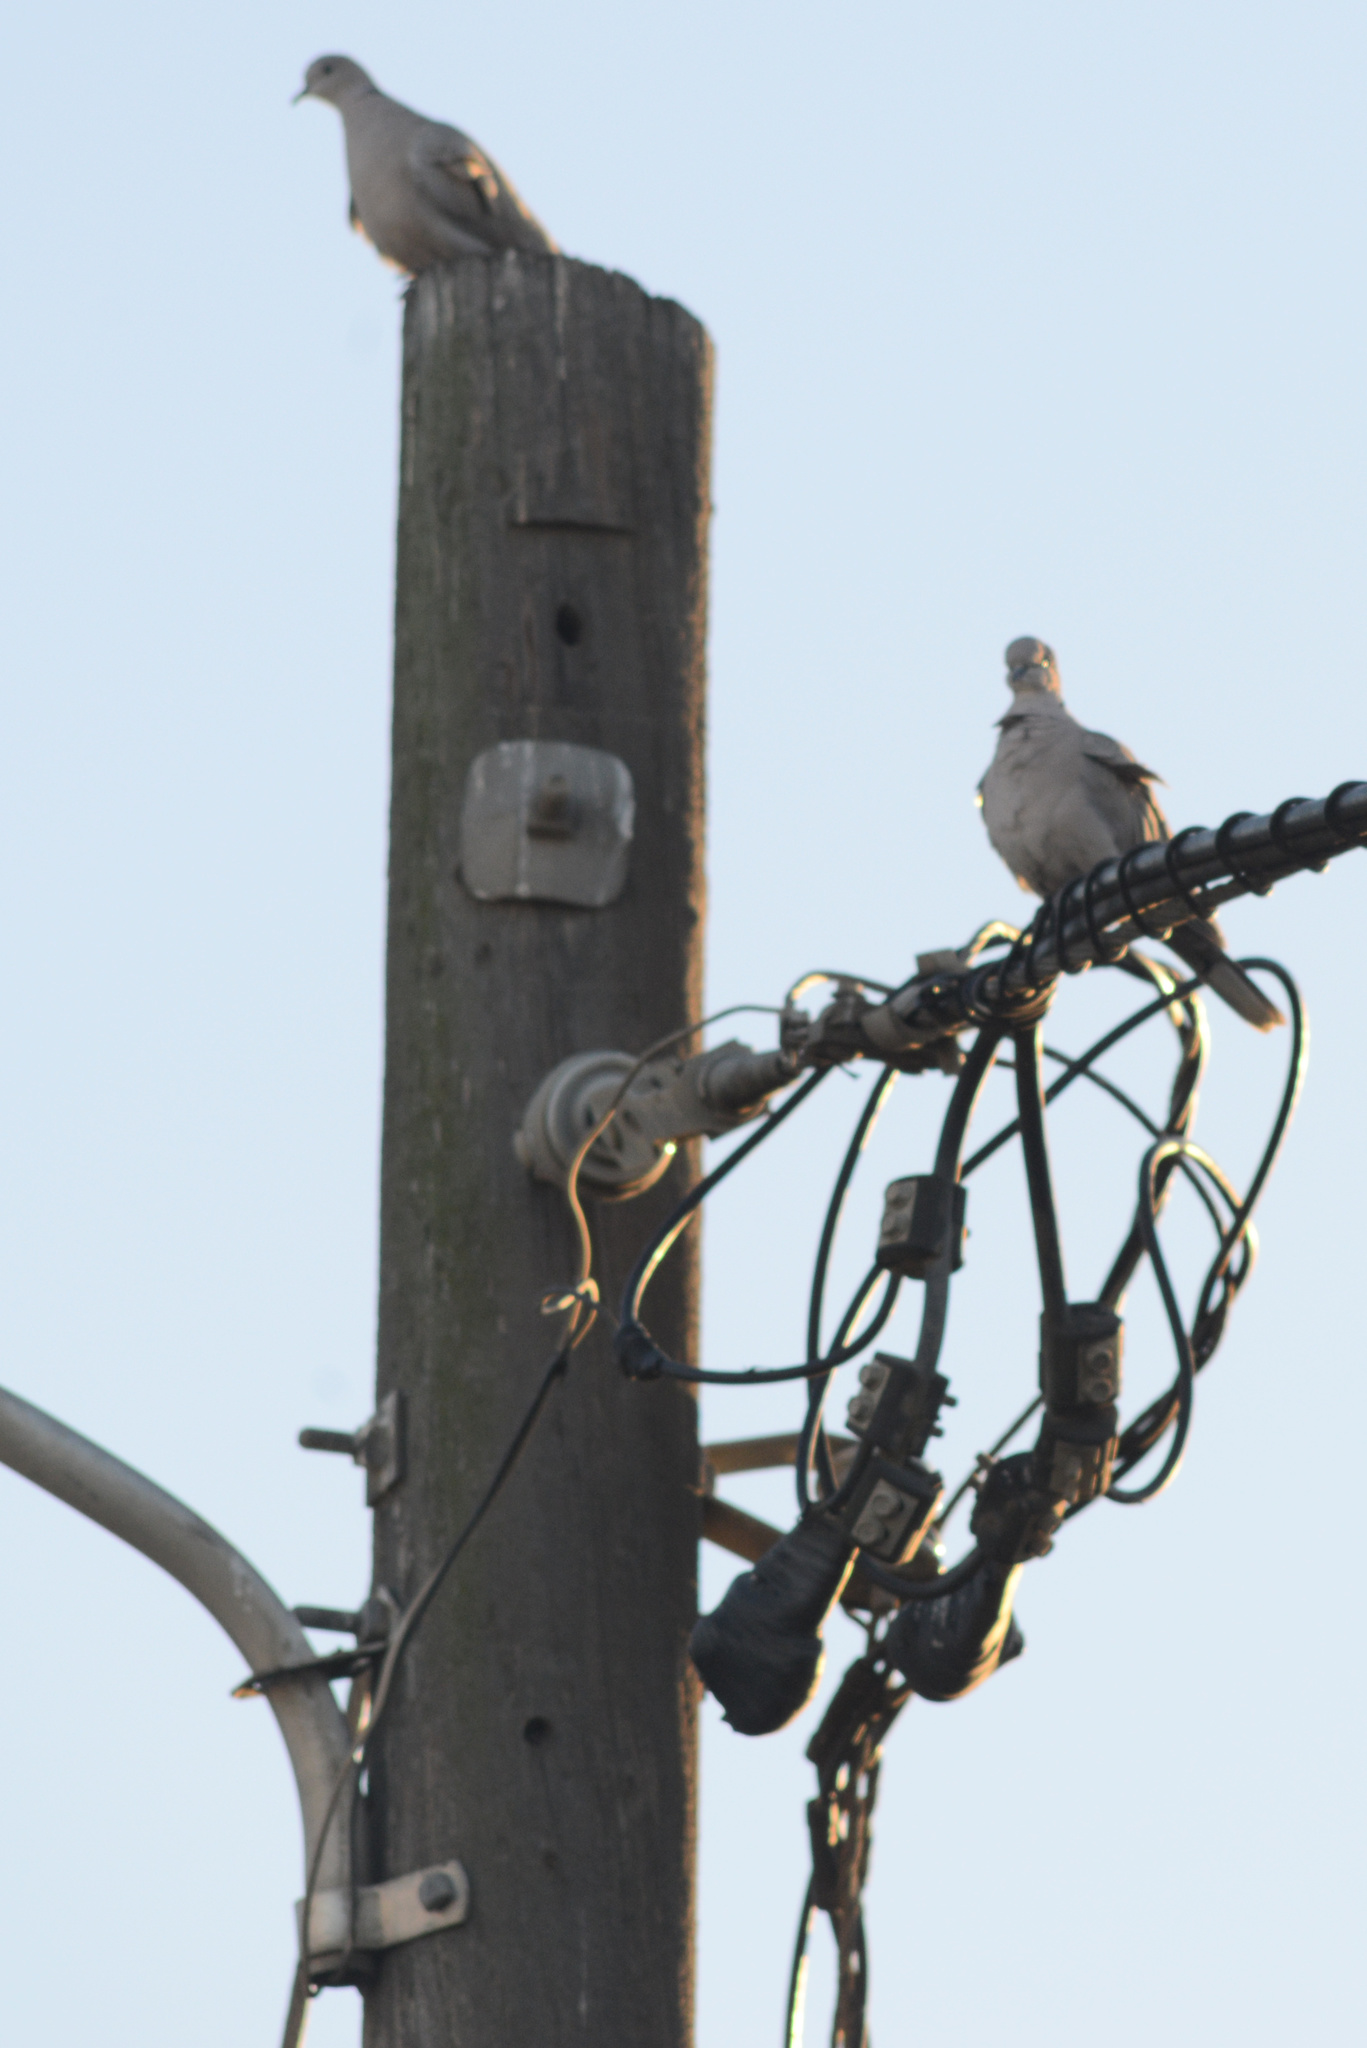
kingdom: Animalia
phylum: Chordata
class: Aves
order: Columbiformes
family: Columbidae
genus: Streptopelia
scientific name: Streptopelia decaocto
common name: Eurasian collared dove
